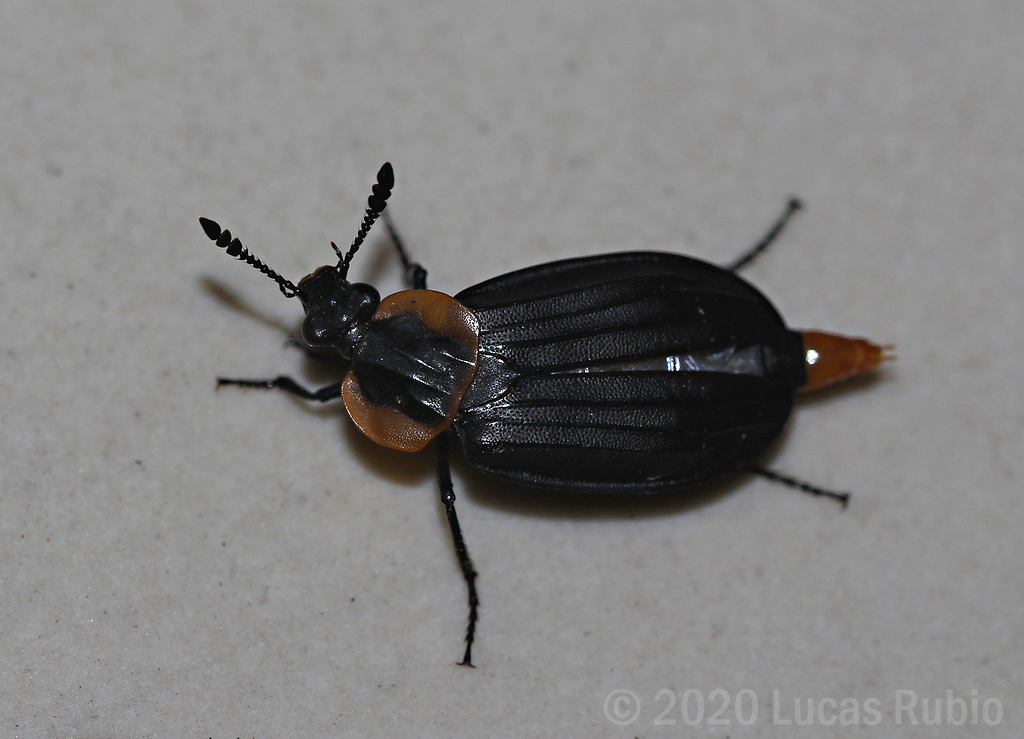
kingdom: Animalia
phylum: Arthropoda
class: Insecta
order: Coleoptera
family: Staphylinidae
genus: Oxelytrum
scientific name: Oxelytrum erythrurum
